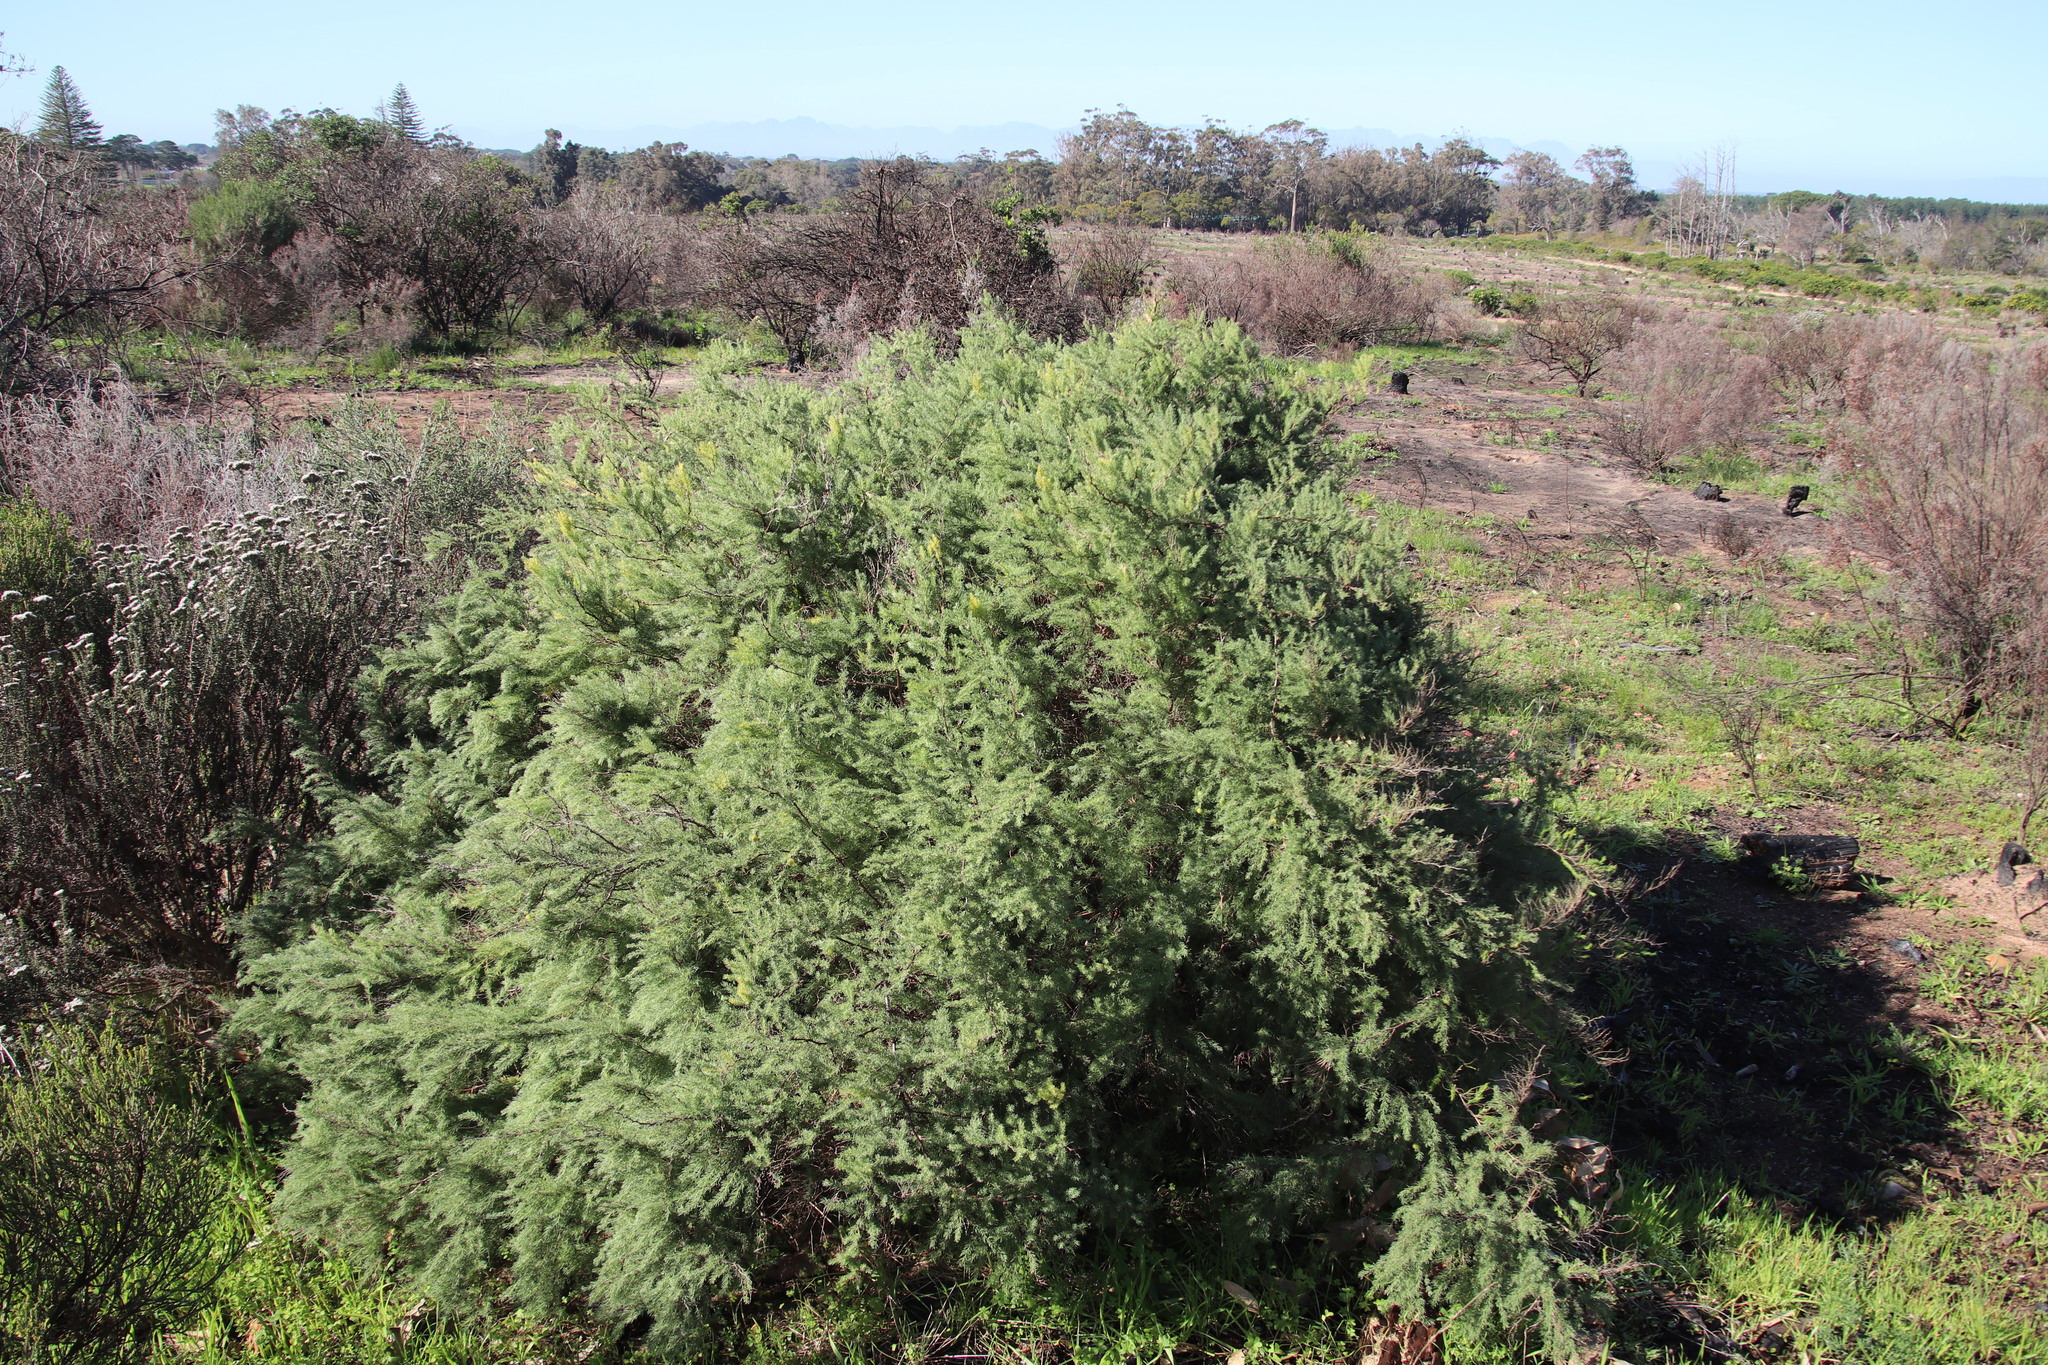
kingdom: Plantae
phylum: Tracheophyta
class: Liliopsida
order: Asparagales
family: Asparagaceae
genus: Asparagus
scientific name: Asparagus rubicundus
